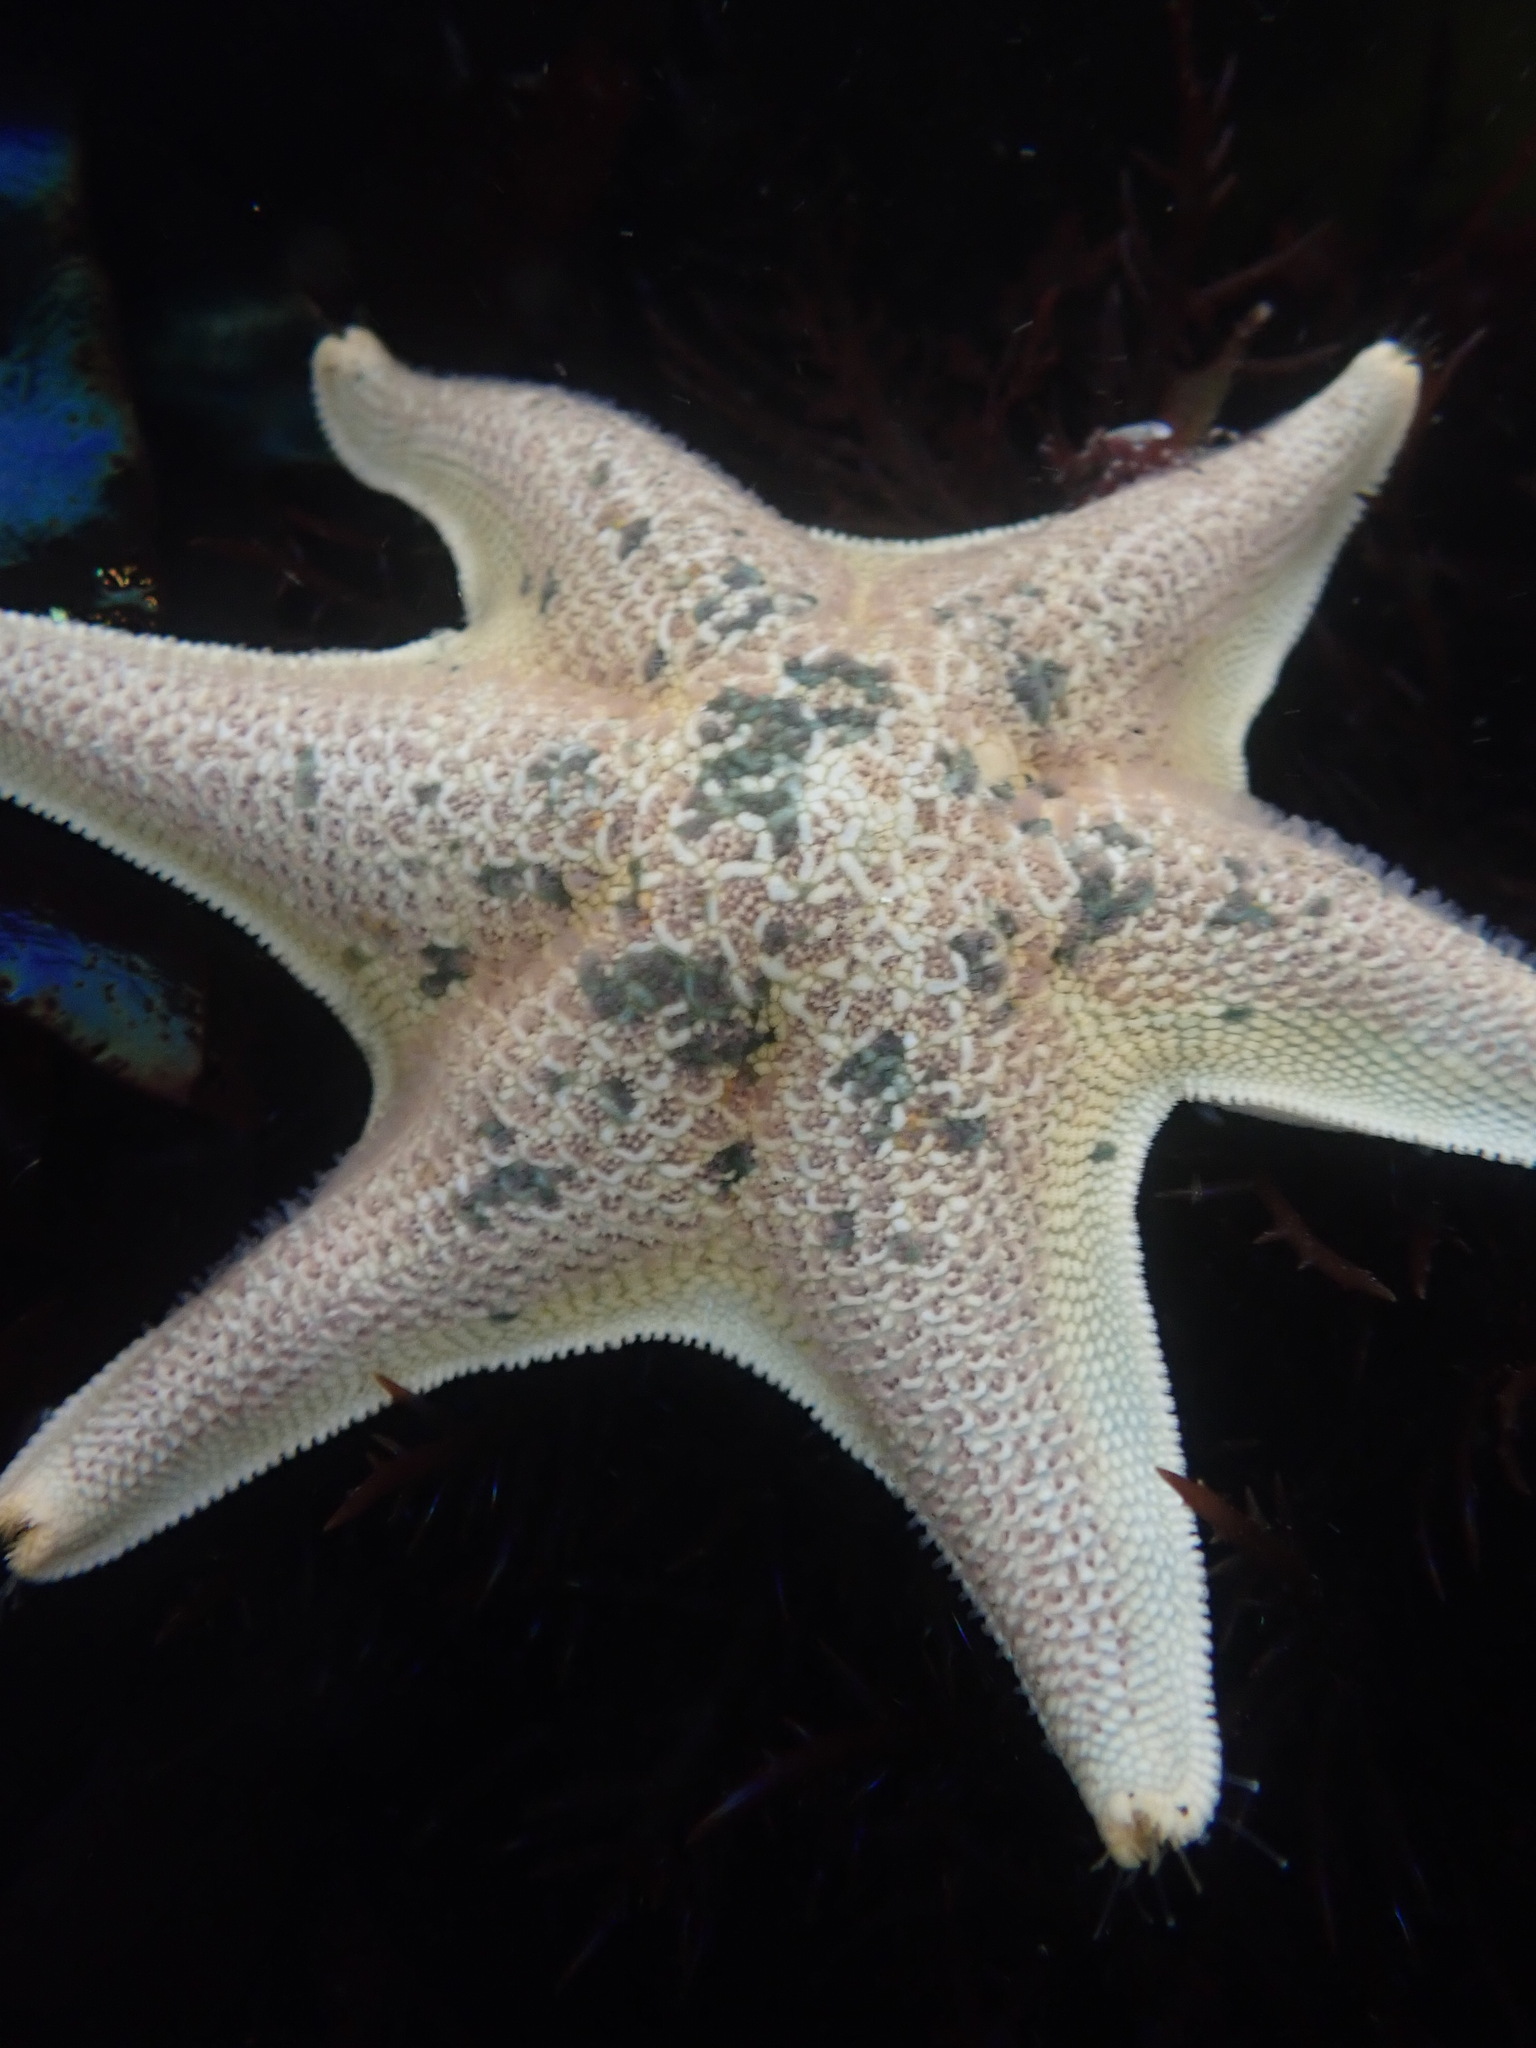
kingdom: Animalia
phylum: Echinodermata
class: Asteroidea
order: Valvatida
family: Asterinidae
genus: Patiria
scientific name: Patiria miniata
